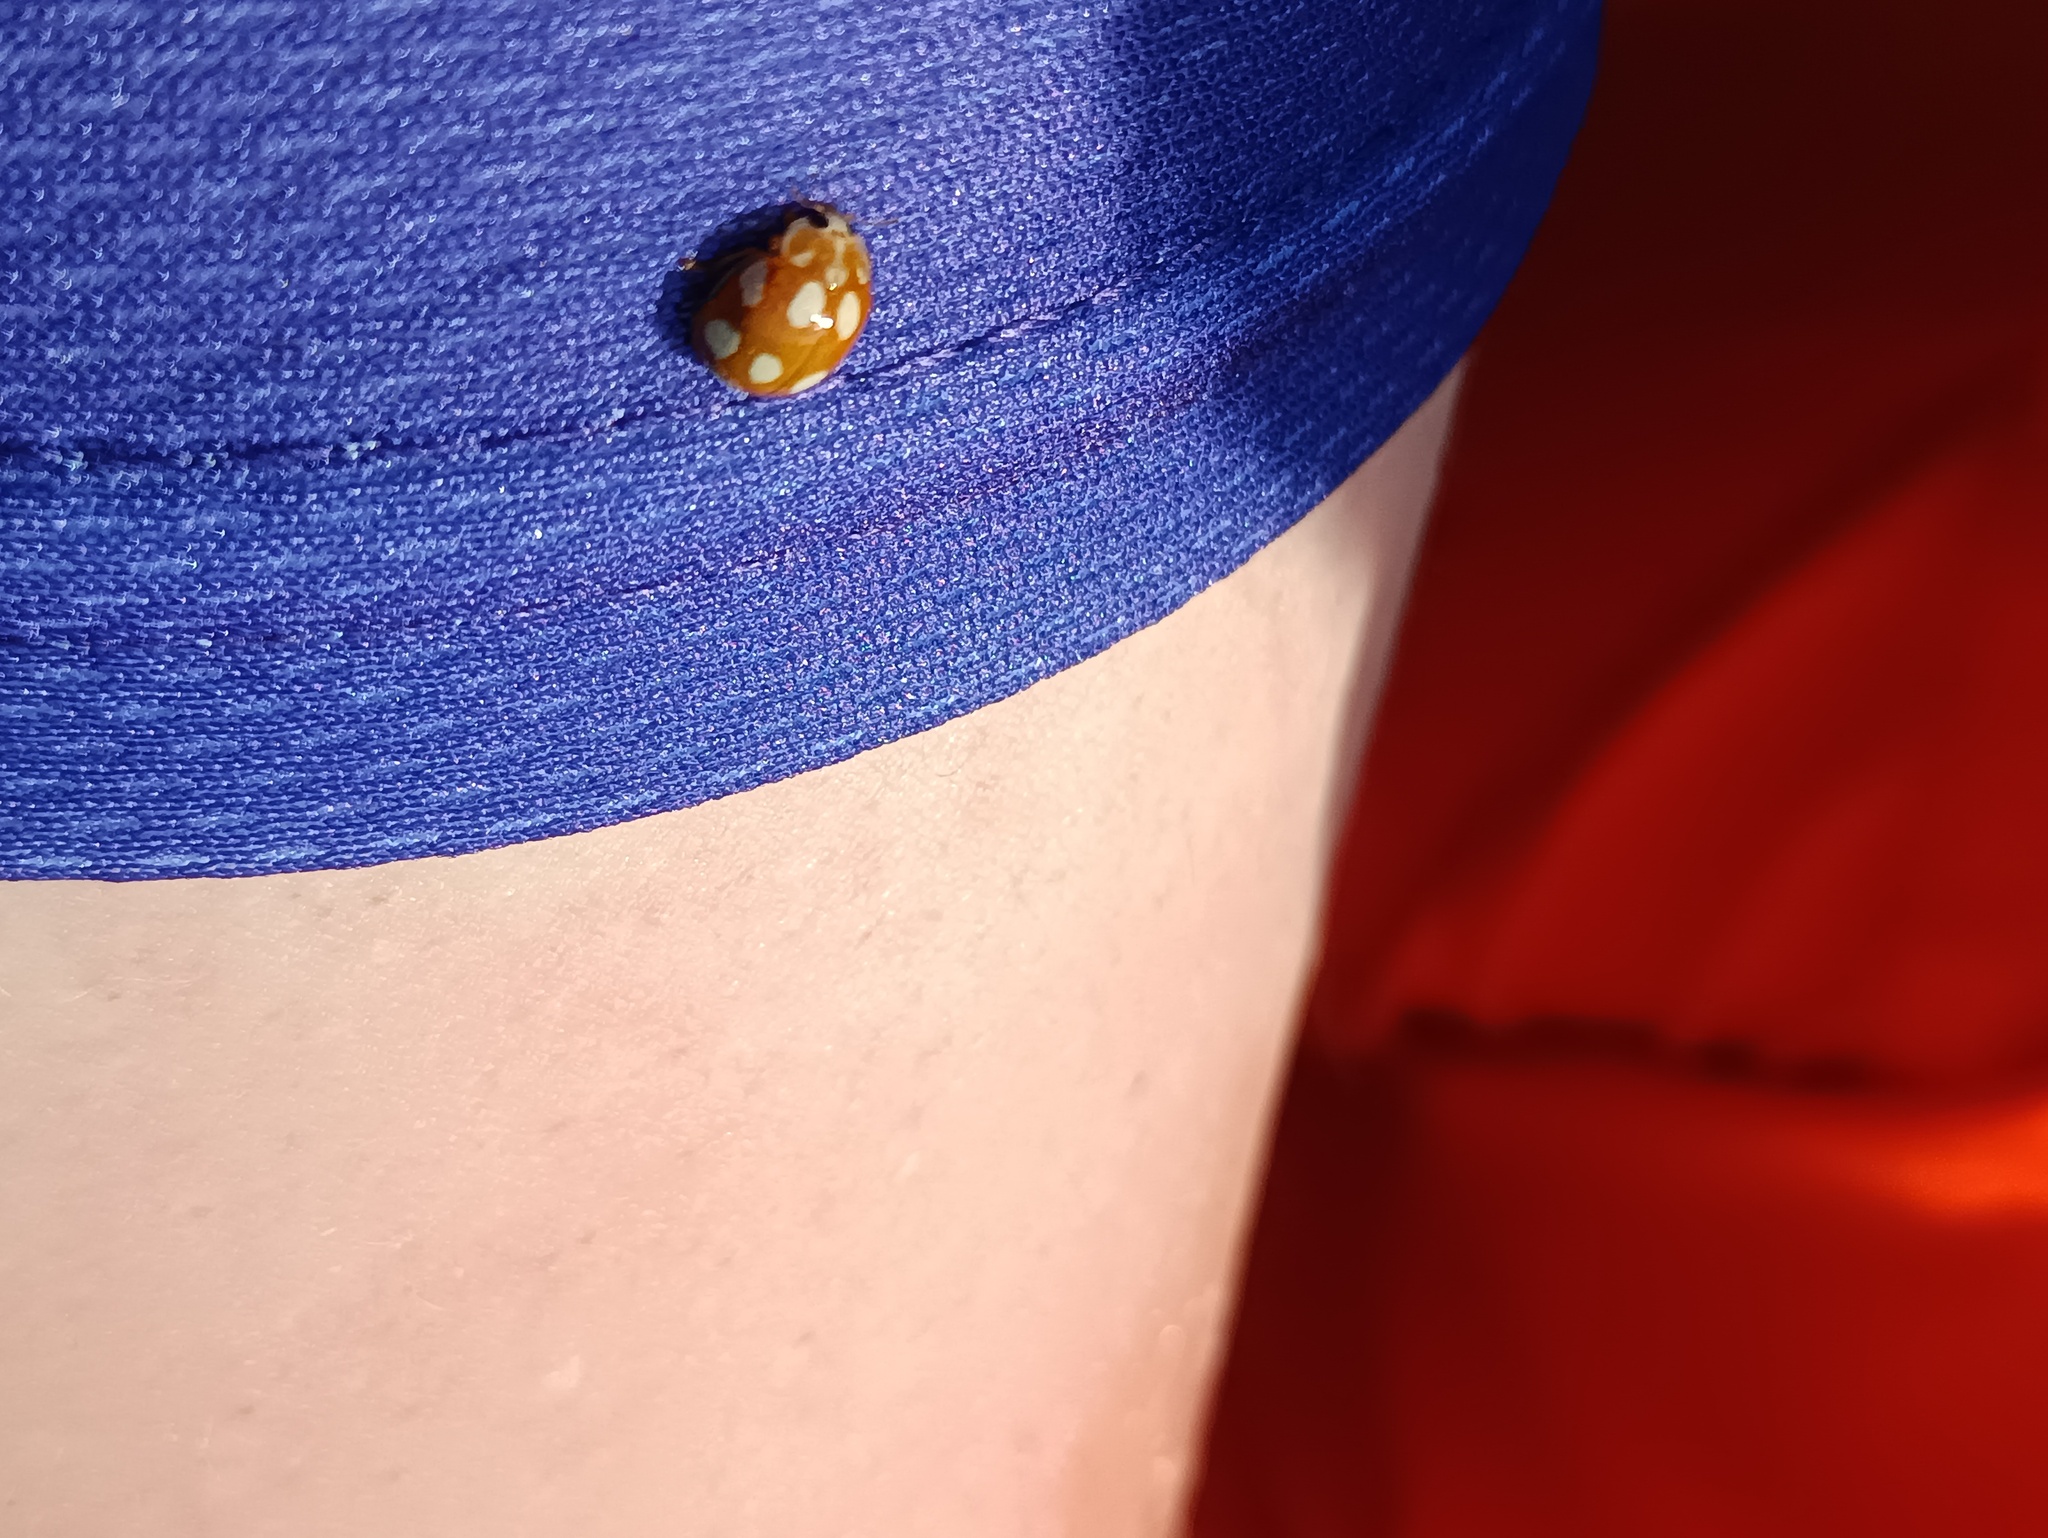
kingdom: Animalia
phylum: Arthropoda
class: Insecta
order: Coleoptera
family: Coccinellidae
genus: Calvia
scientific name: Calvia decemguttata
